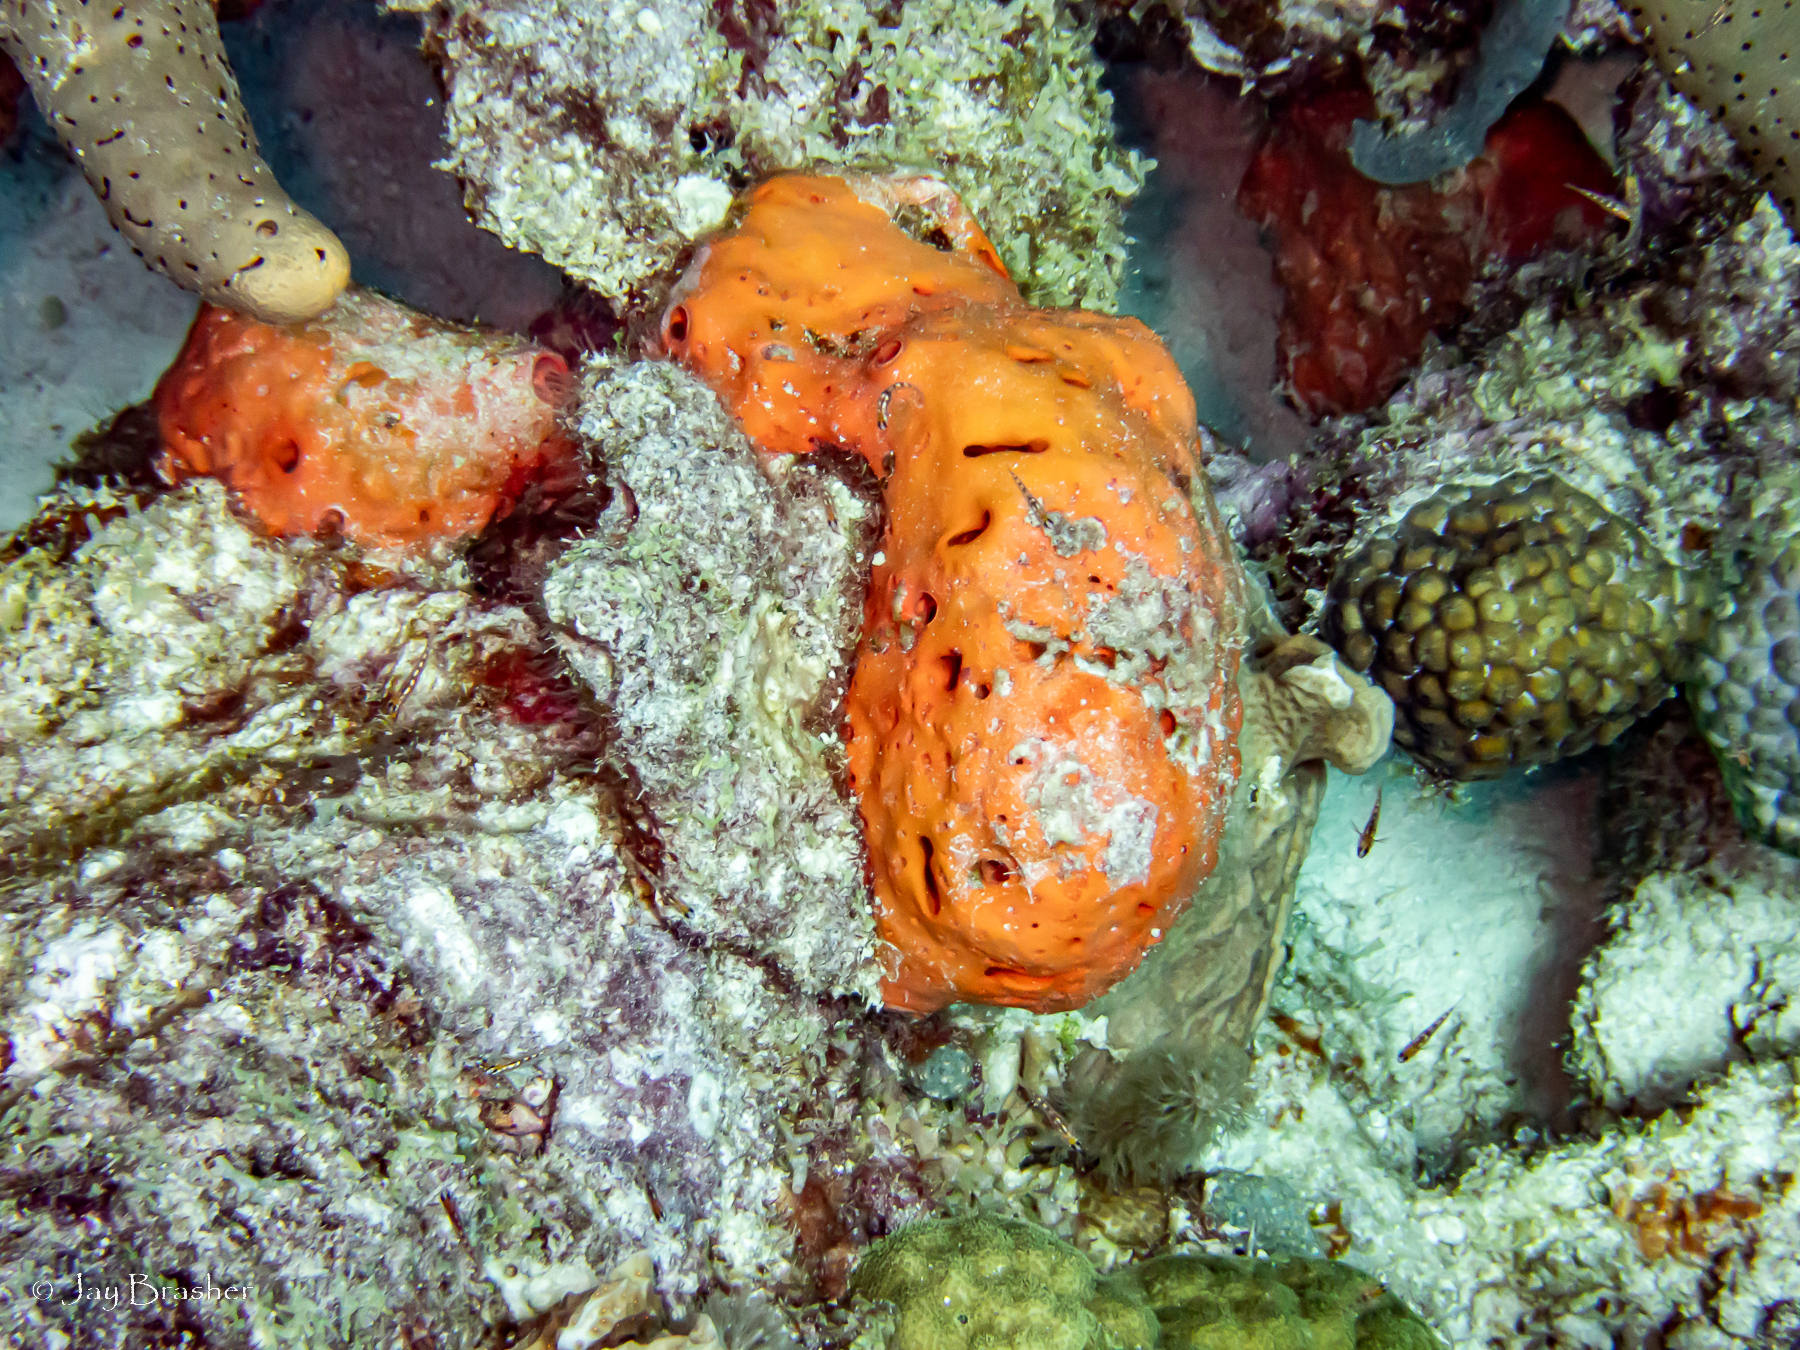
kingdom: Animalia
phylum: Cnidaria
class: Anthozoa
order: Scleractinia
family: Montastraeidae
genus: Montastraea
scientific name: Montastraea cavernosa
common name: Great star coral
